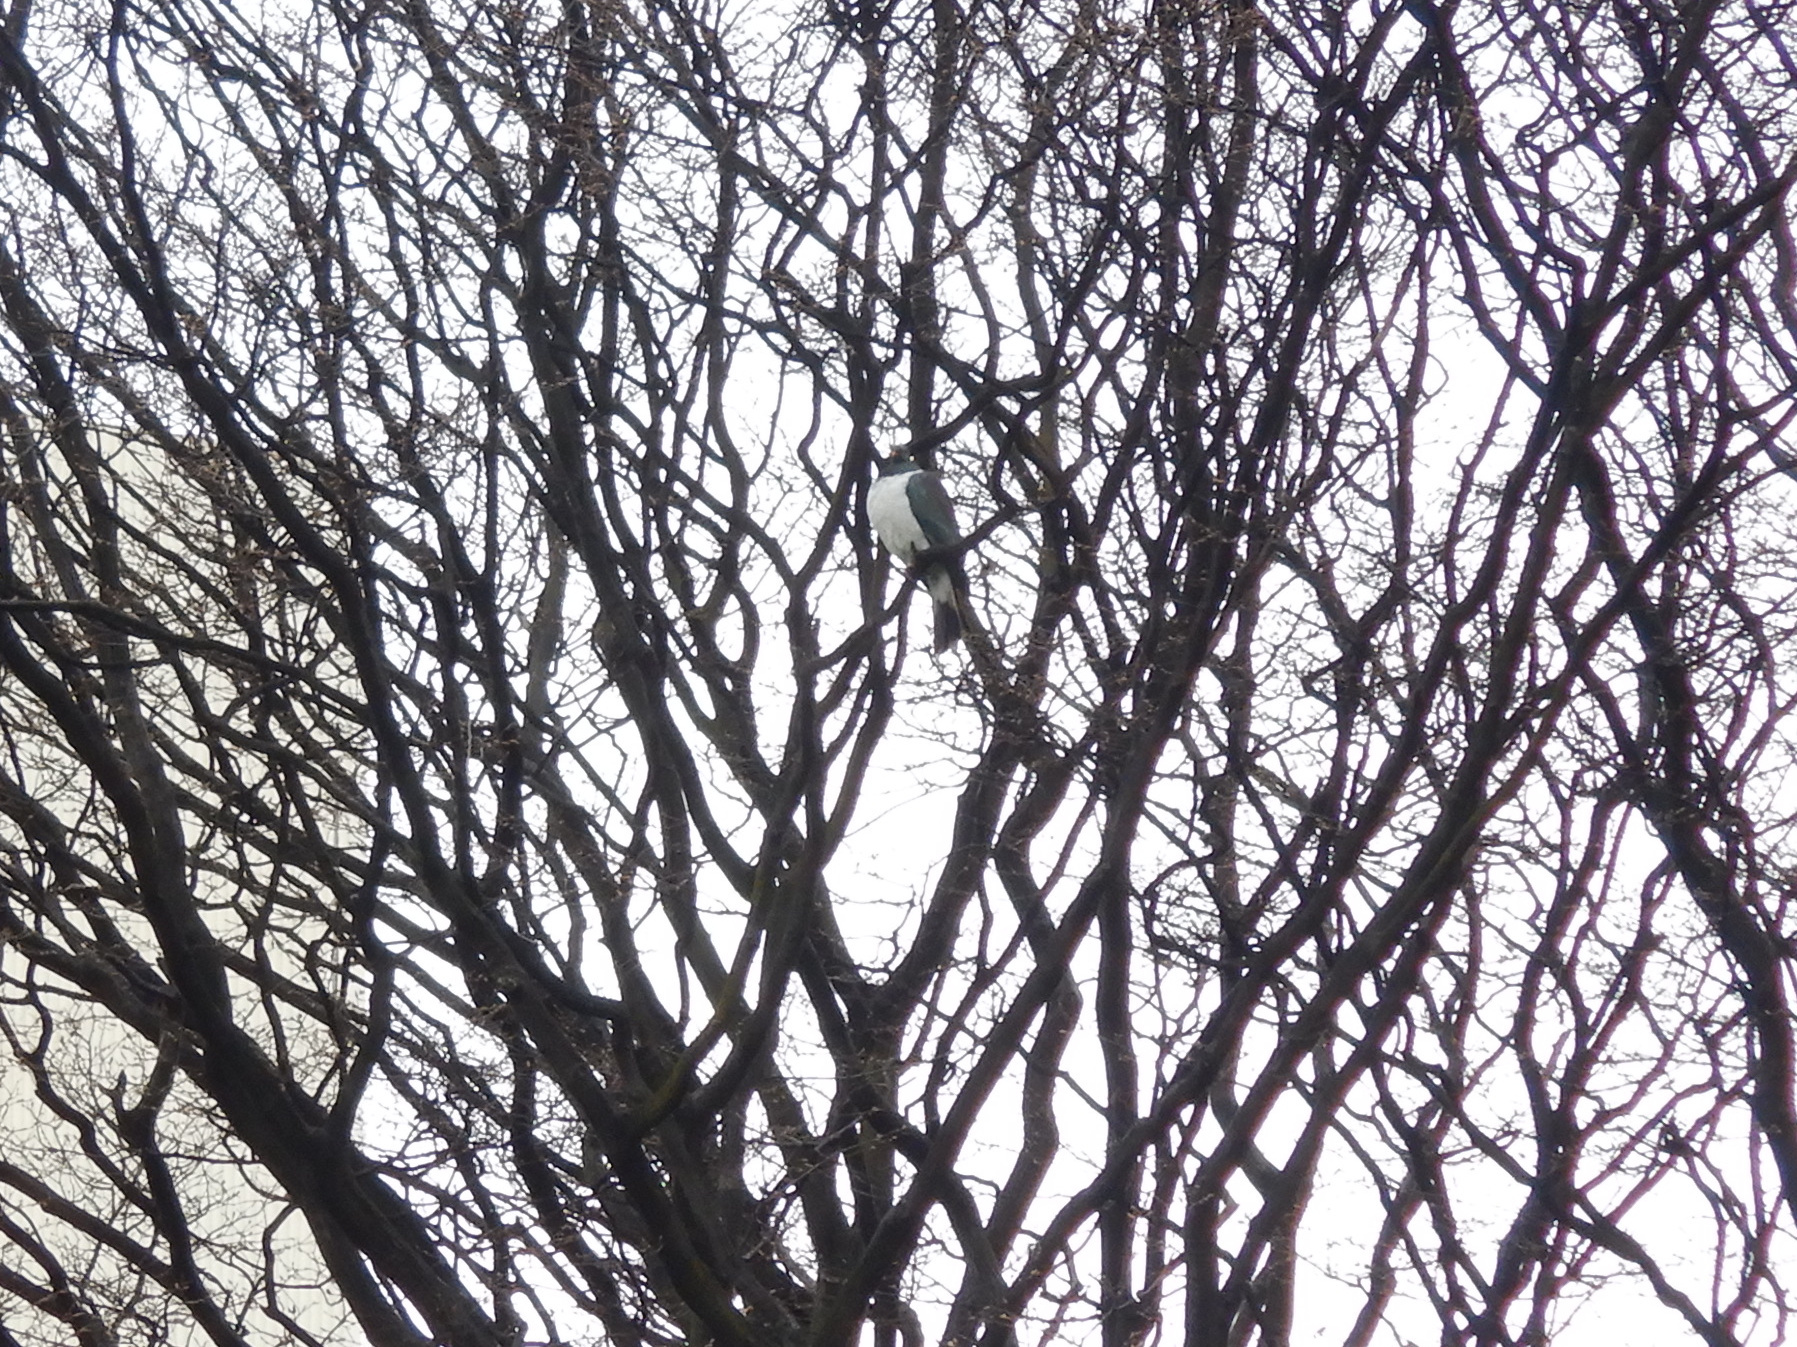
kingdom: Animalia
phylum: Chordata
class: Aves
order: Columbiformes
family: Columbidae
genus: Hemiphaga
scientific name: Hemiphaga novaeseelandiae
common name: New zealand pigeon
